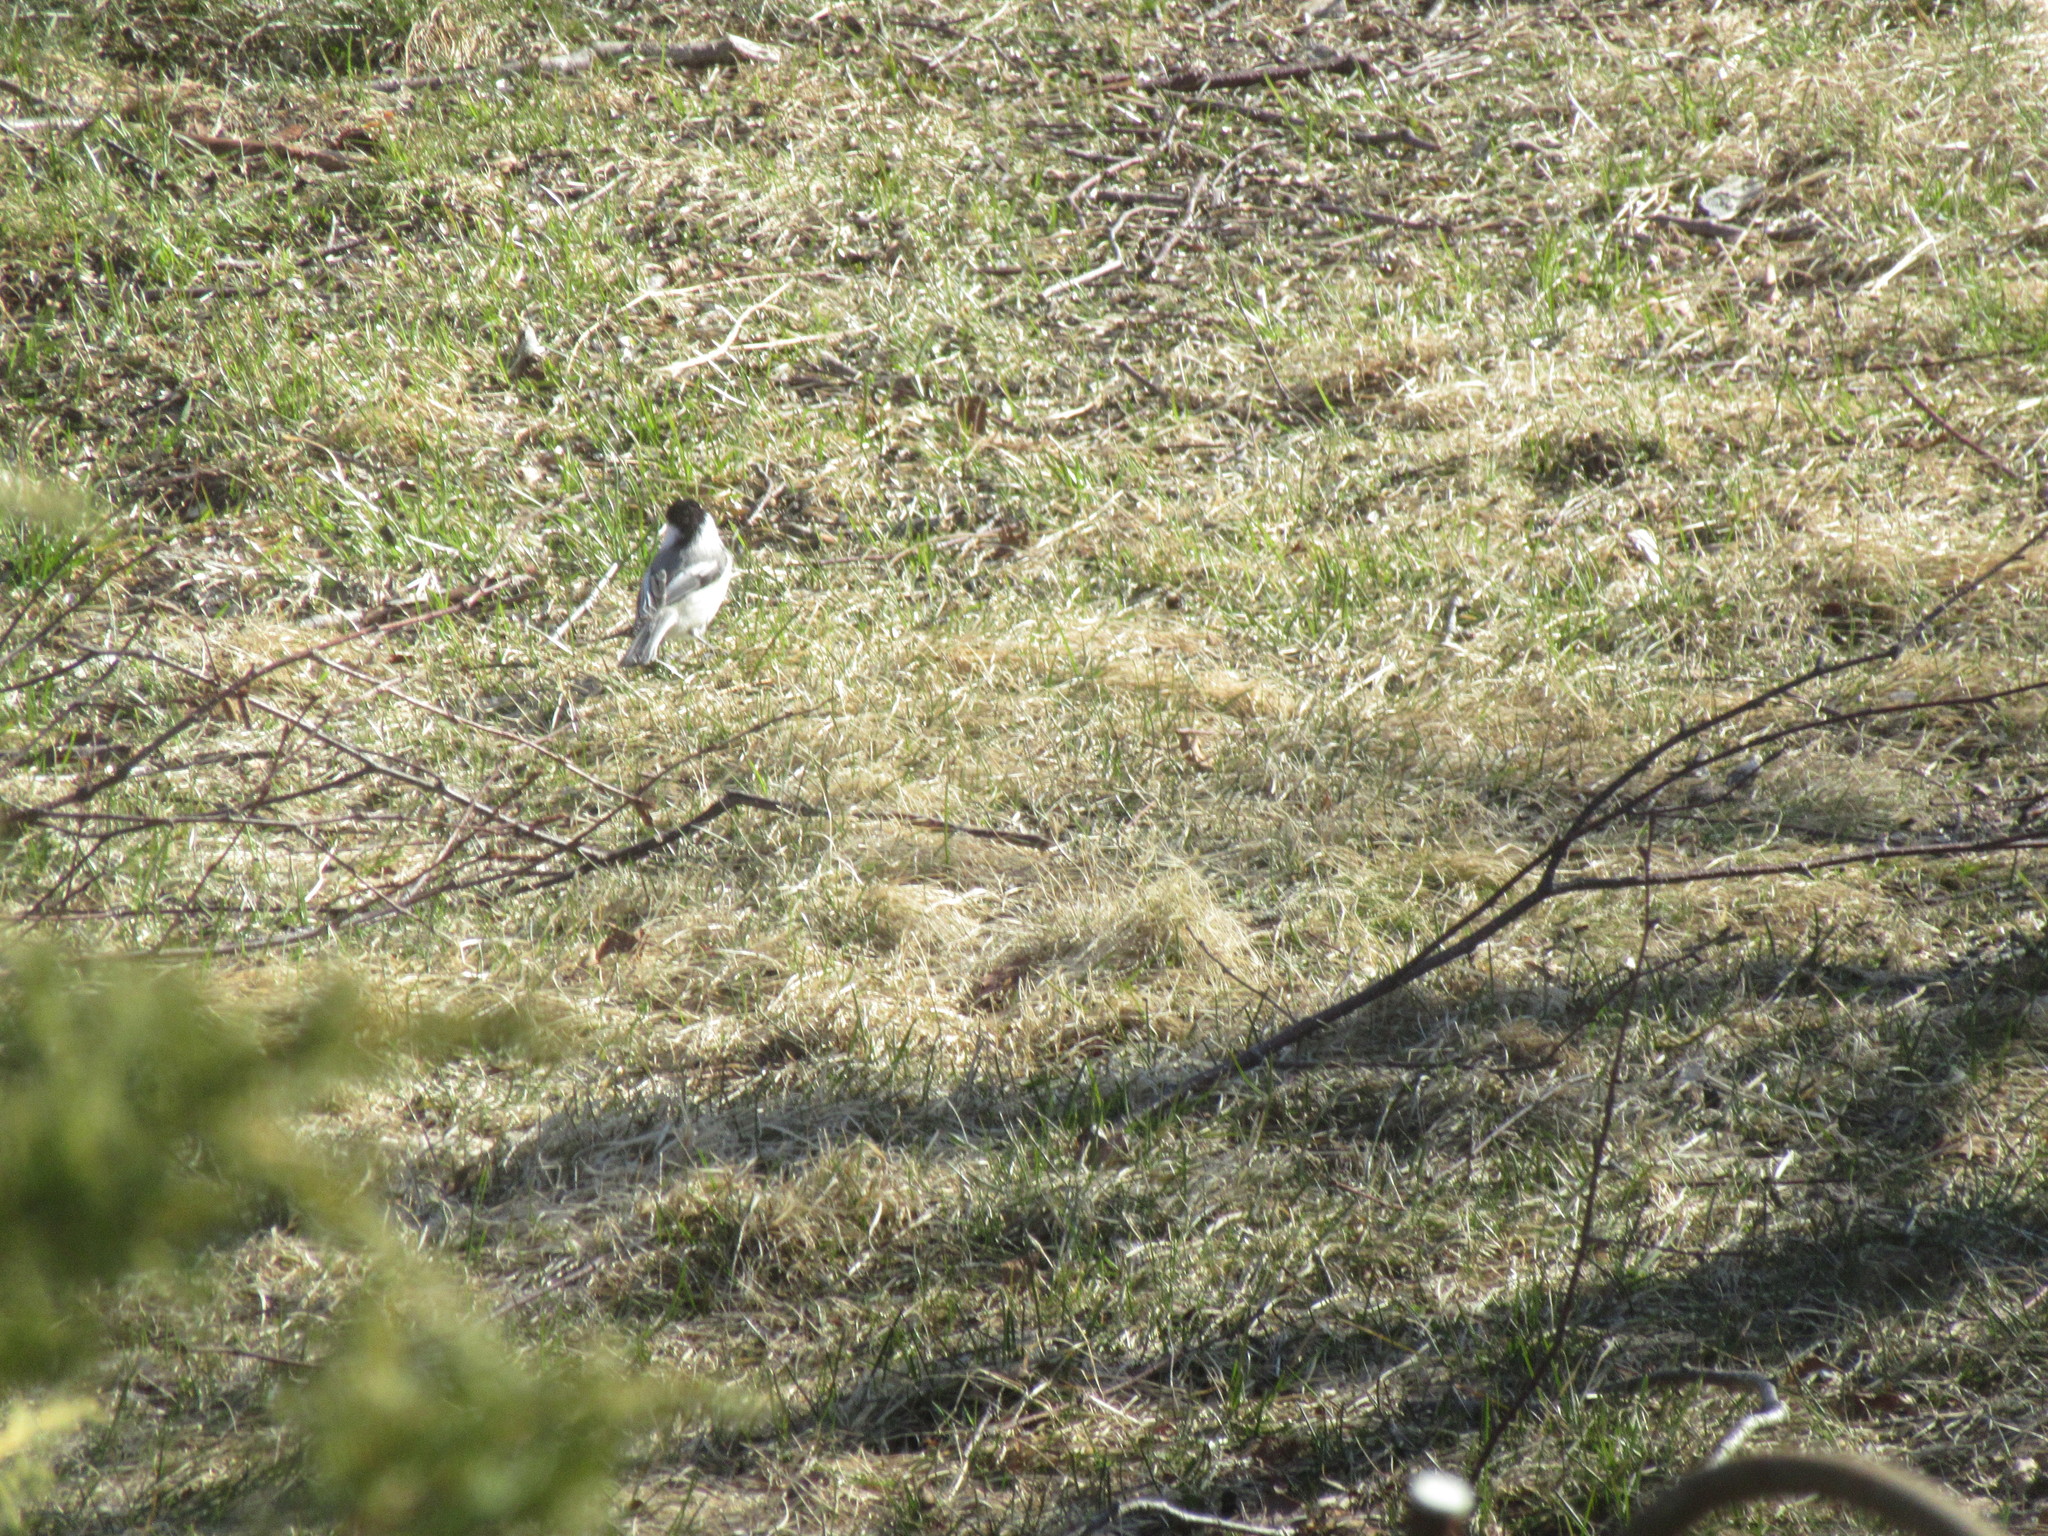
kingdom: Animalia
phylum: Chordata
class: Aves
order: Passeriformes
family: Paridae
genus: Poecile
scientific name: Poecile atricapillus
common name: Black-capped chickadee
